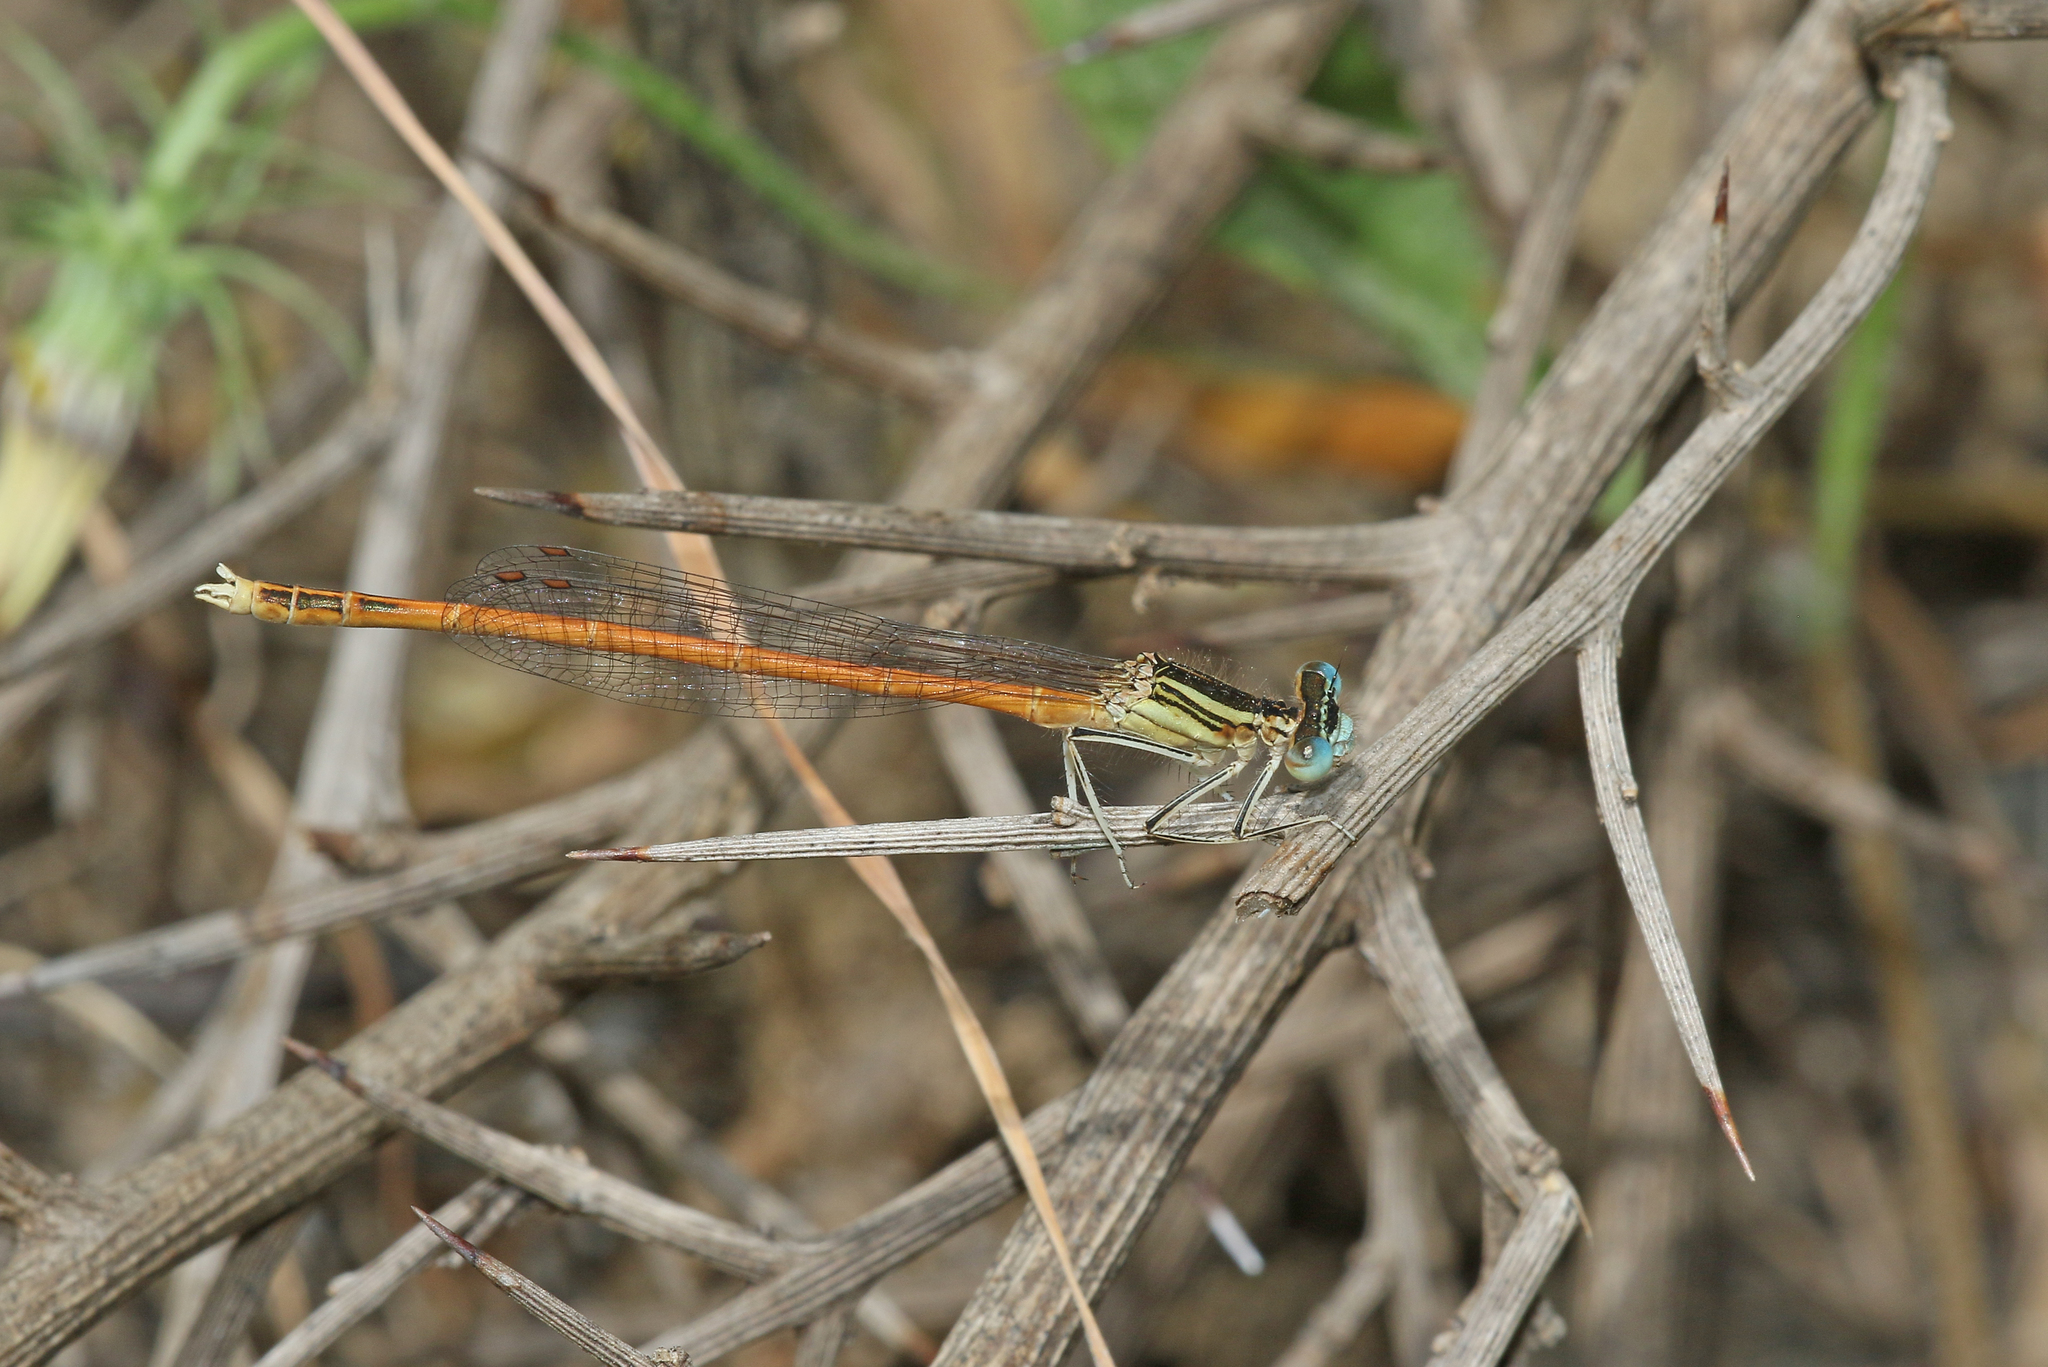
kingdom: Animalia
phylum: Arthropoda
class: Insecta
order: Odonata
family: Platycnemididae
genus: Platycnemis
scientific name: Platycnemis acutipennis
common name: Orange featherleg
